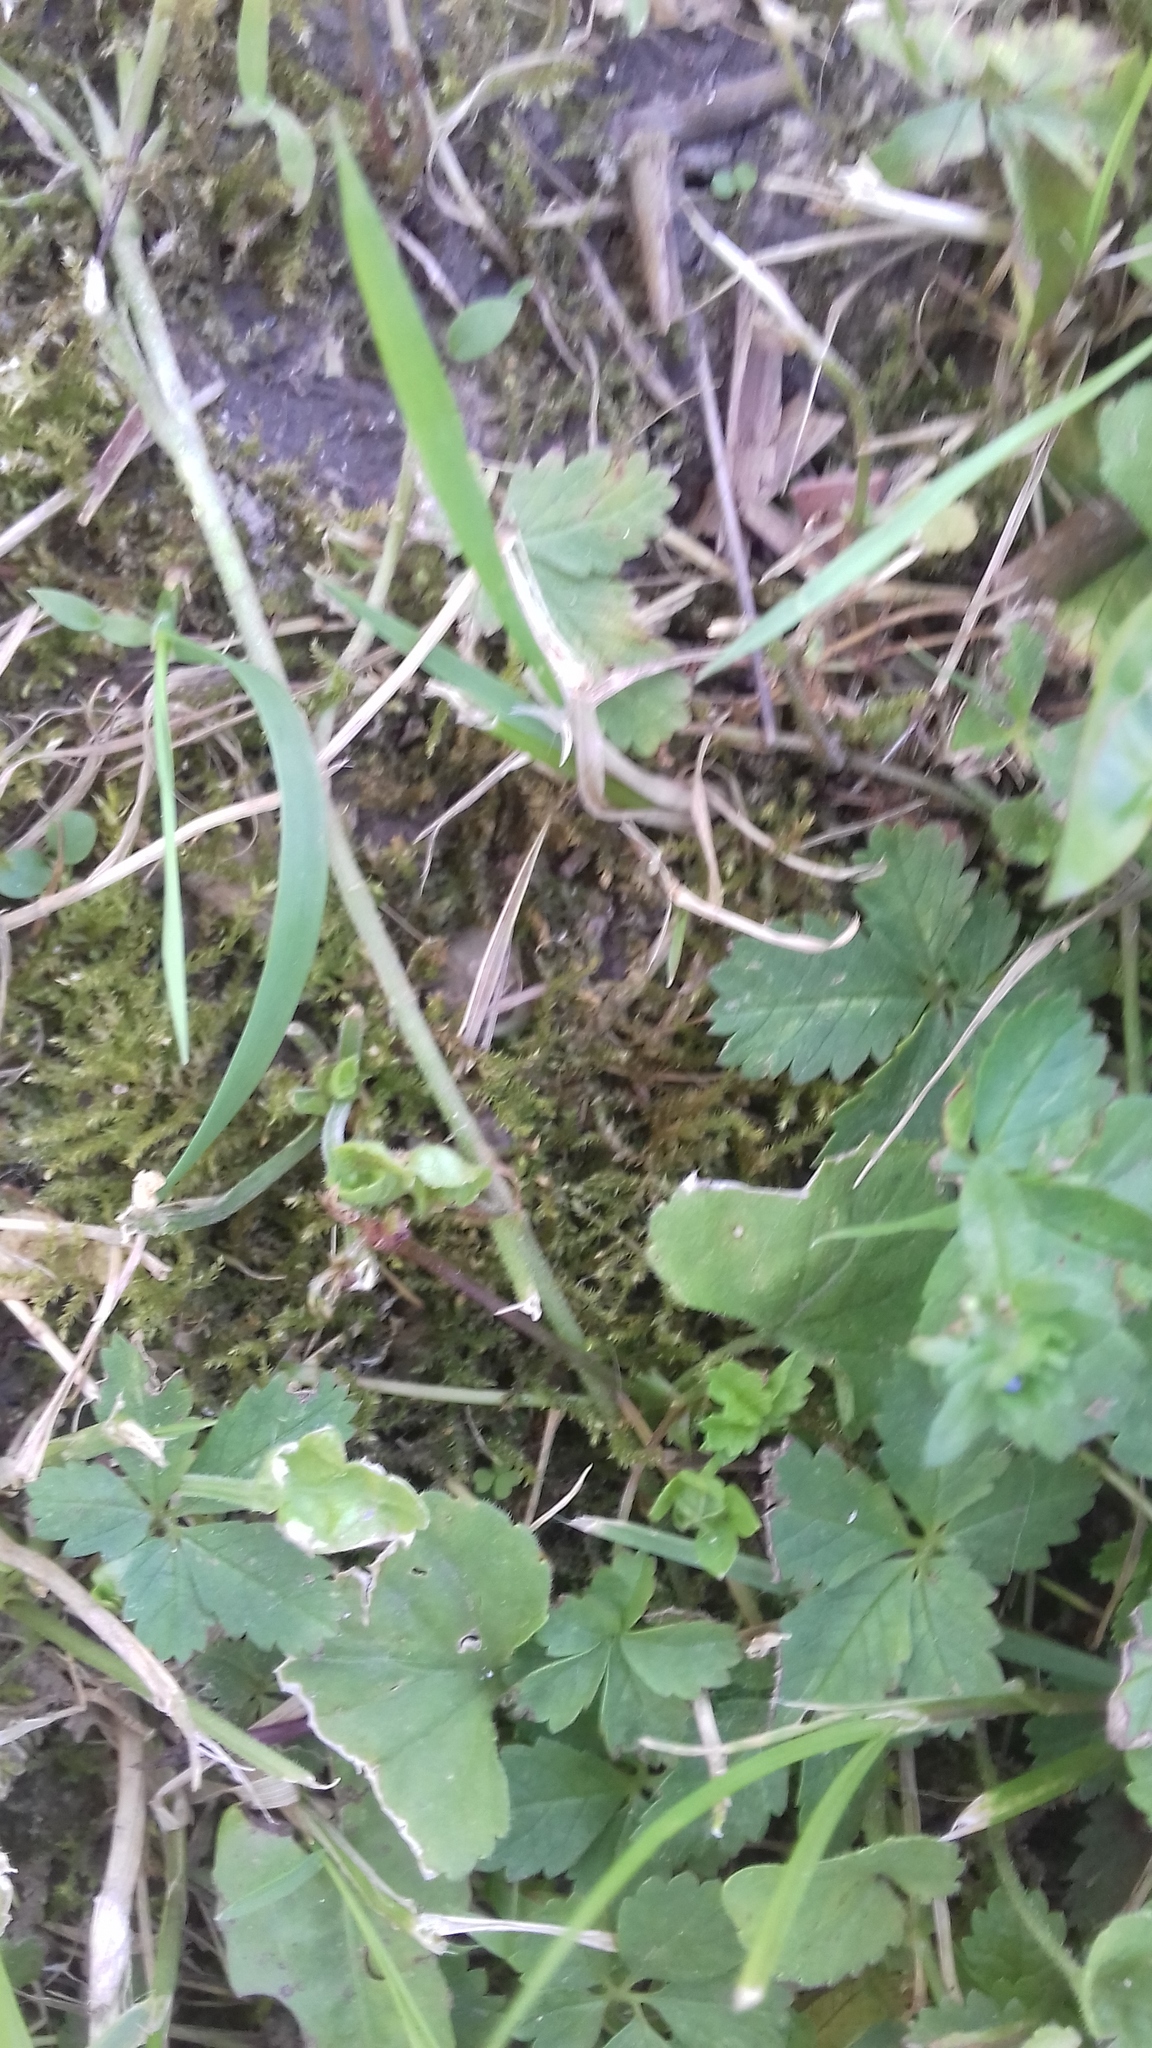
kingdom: Plantae
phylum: Bryophyta
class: Bryopsida
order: Hypnales
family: Brachytheciaceae
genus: Oxyrrhynchium
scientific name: Oxyrrhynchium hians
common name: Spreading beaked moss
